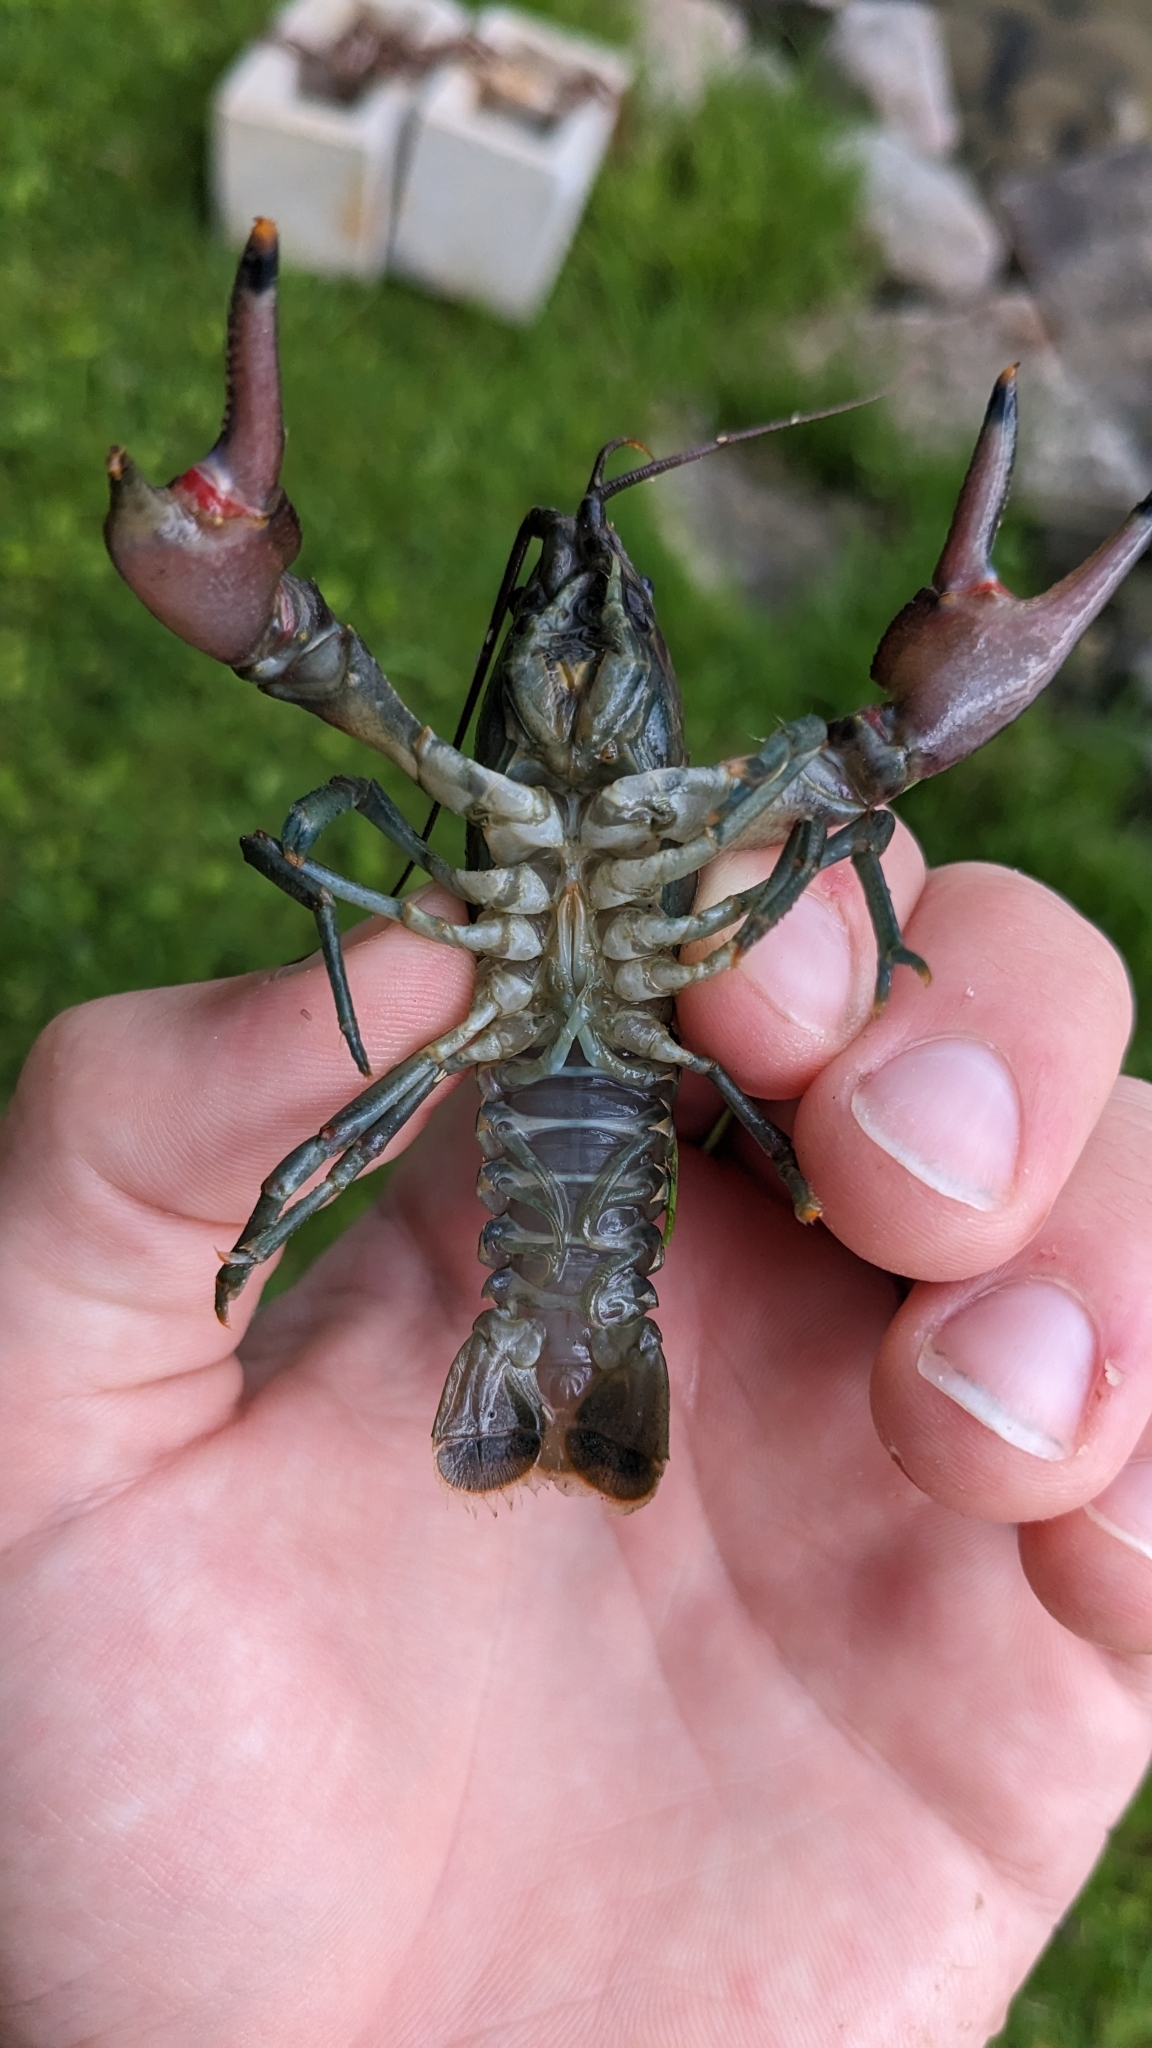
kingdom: Animalia
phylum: Arthropoda
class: Malacostraca
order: Decapoda
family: Cambaridae
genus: Faxonius
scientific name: Faxonius rusticus
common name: Rusty crayfish
